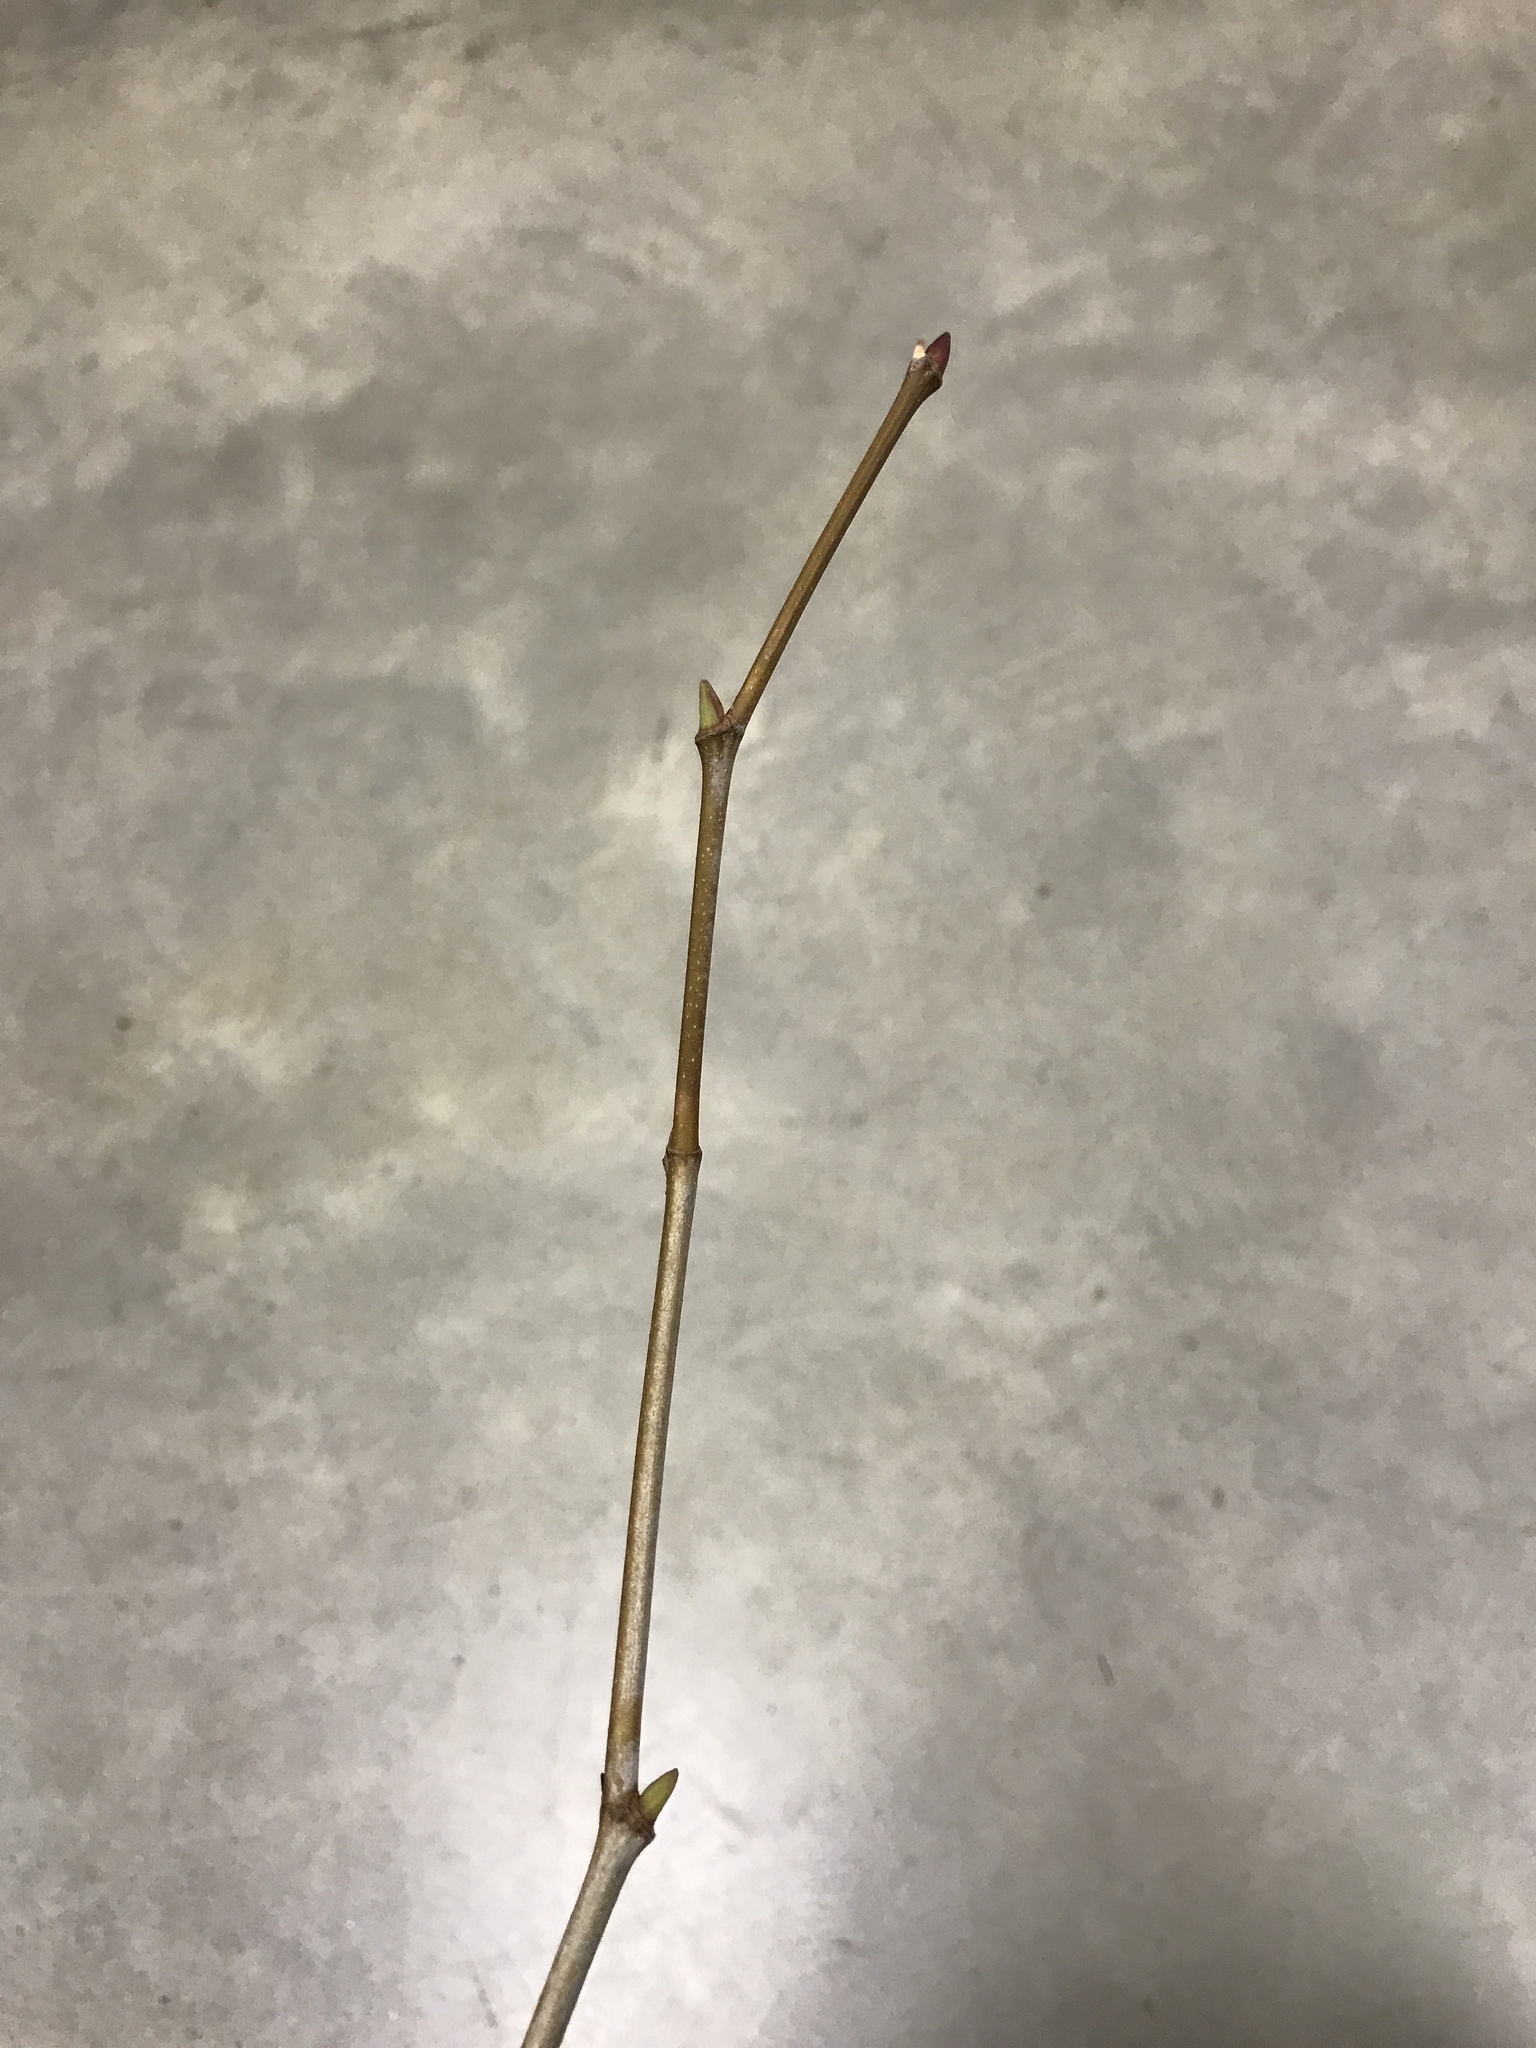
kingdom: Plantae
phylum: Tracheophyta
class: Magnoliopsida
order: Proteales
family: Platanaceae
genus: Platanus
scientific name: Platanus occidentalis
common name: American sycamore
